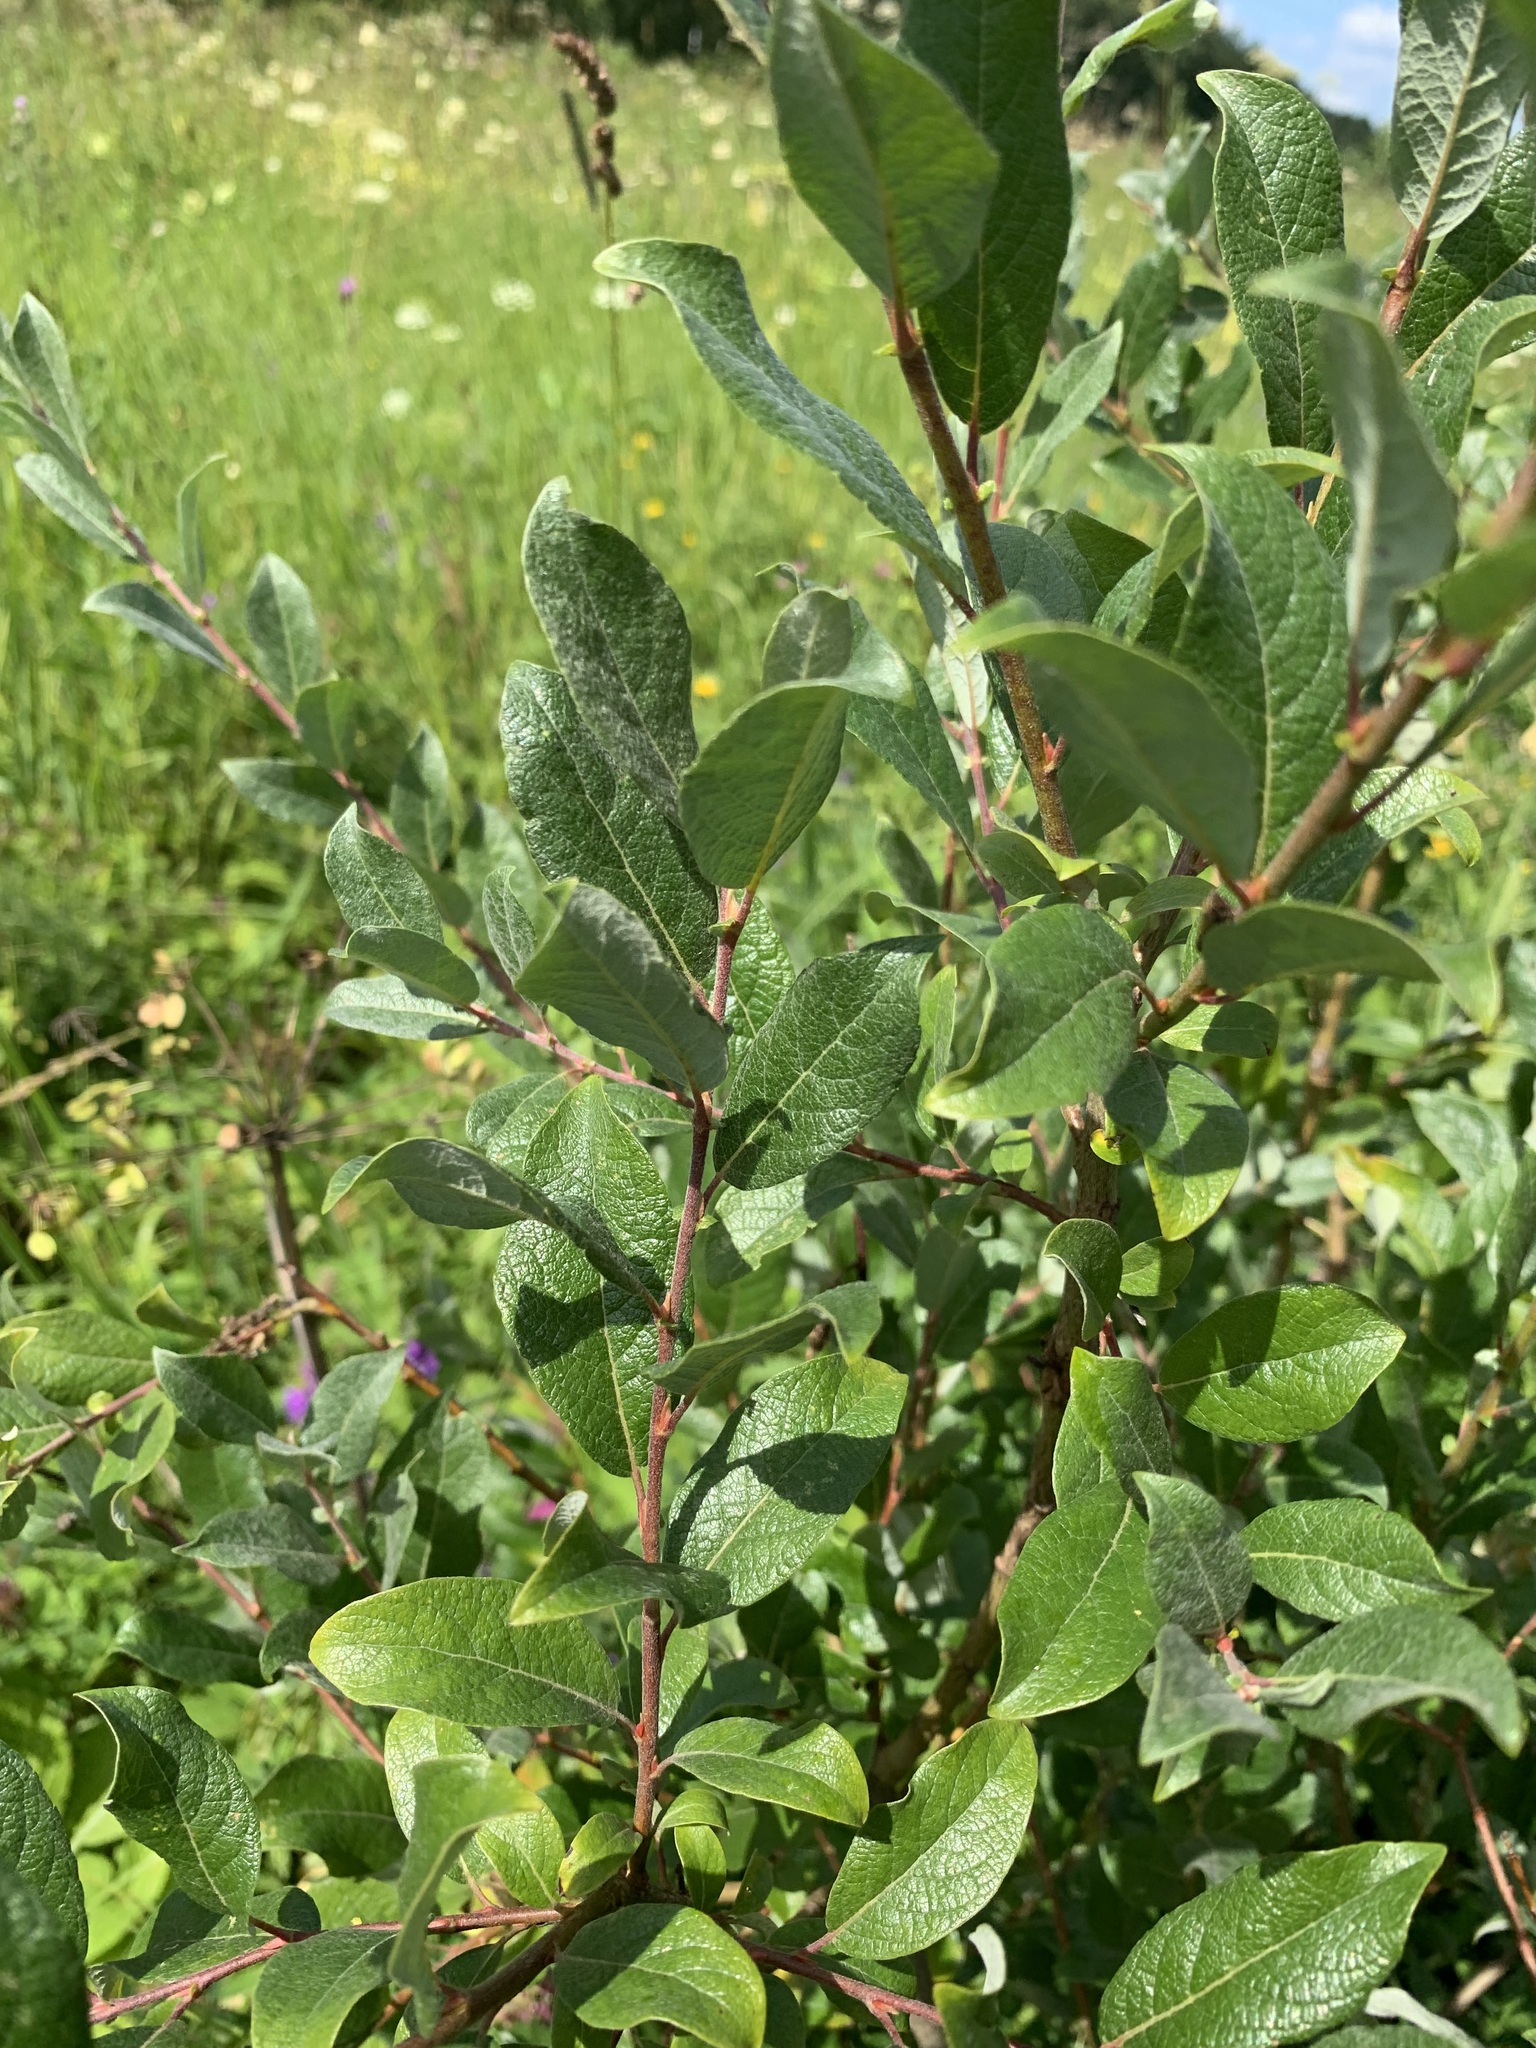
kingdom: Plantae
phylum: Tracheophyta
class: Magnoliopsida
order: Malpighiales
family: Salicaceae
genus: Salix
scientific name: Salix bebbiana
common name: Bebb's willow
